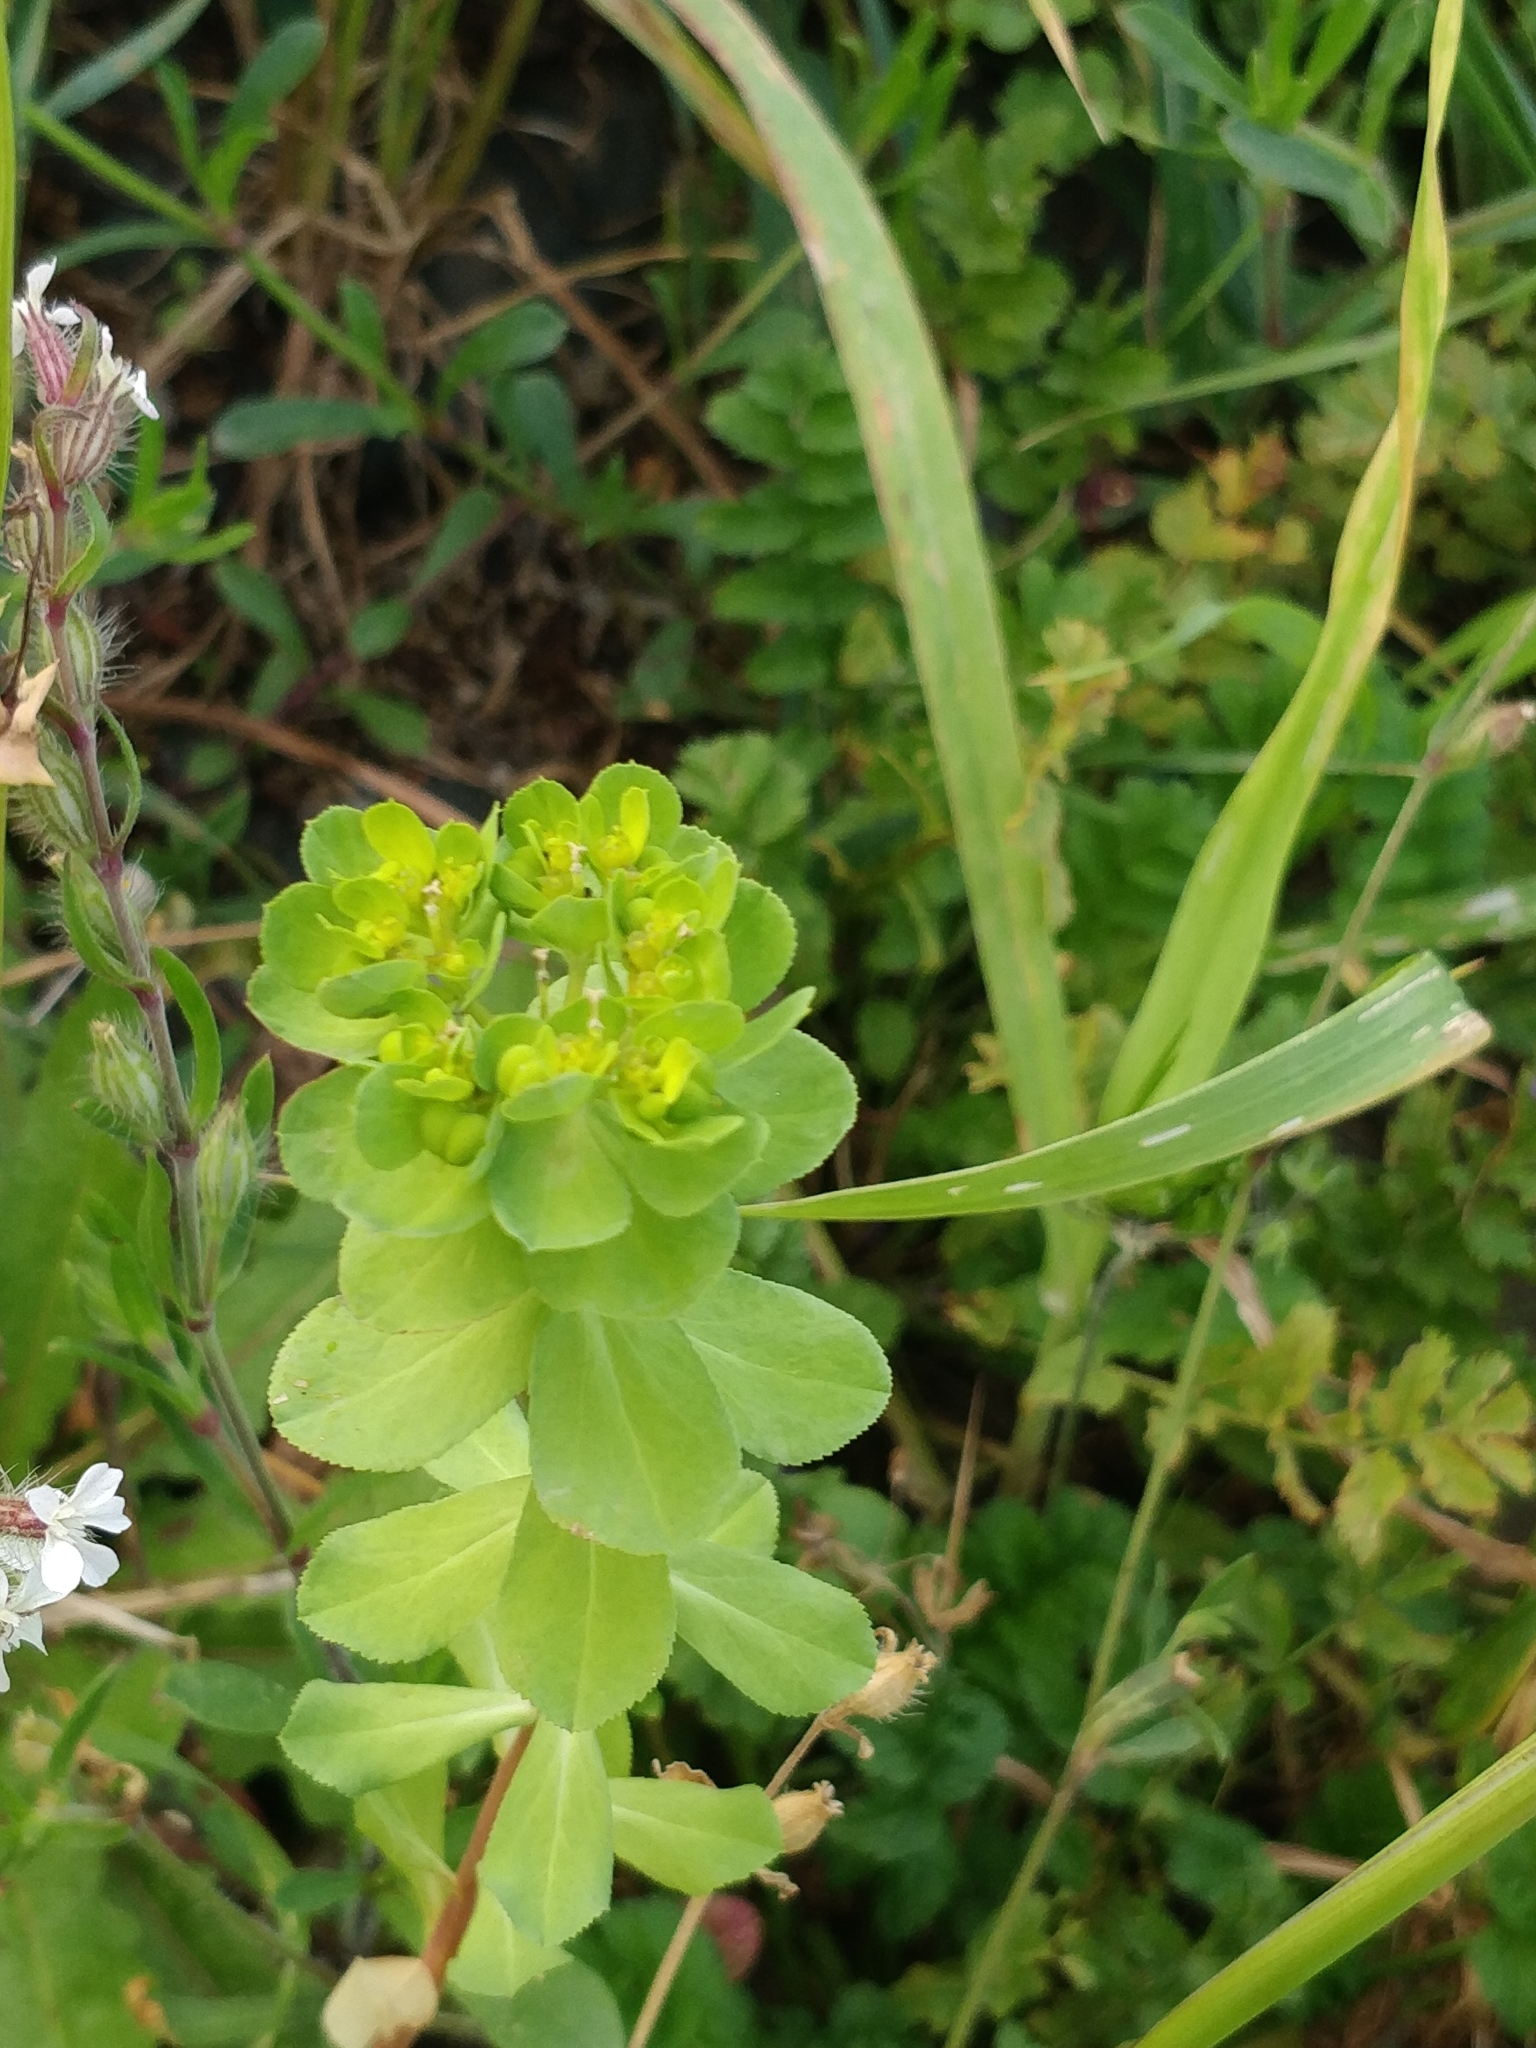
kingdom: Plantae
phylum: Tracheophyta
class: Magnoliopsida
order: Malpighiales
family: Euphorbiaceae
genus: Euphorbia
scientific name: Euphorbia helioscopia
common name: Sun spurge
